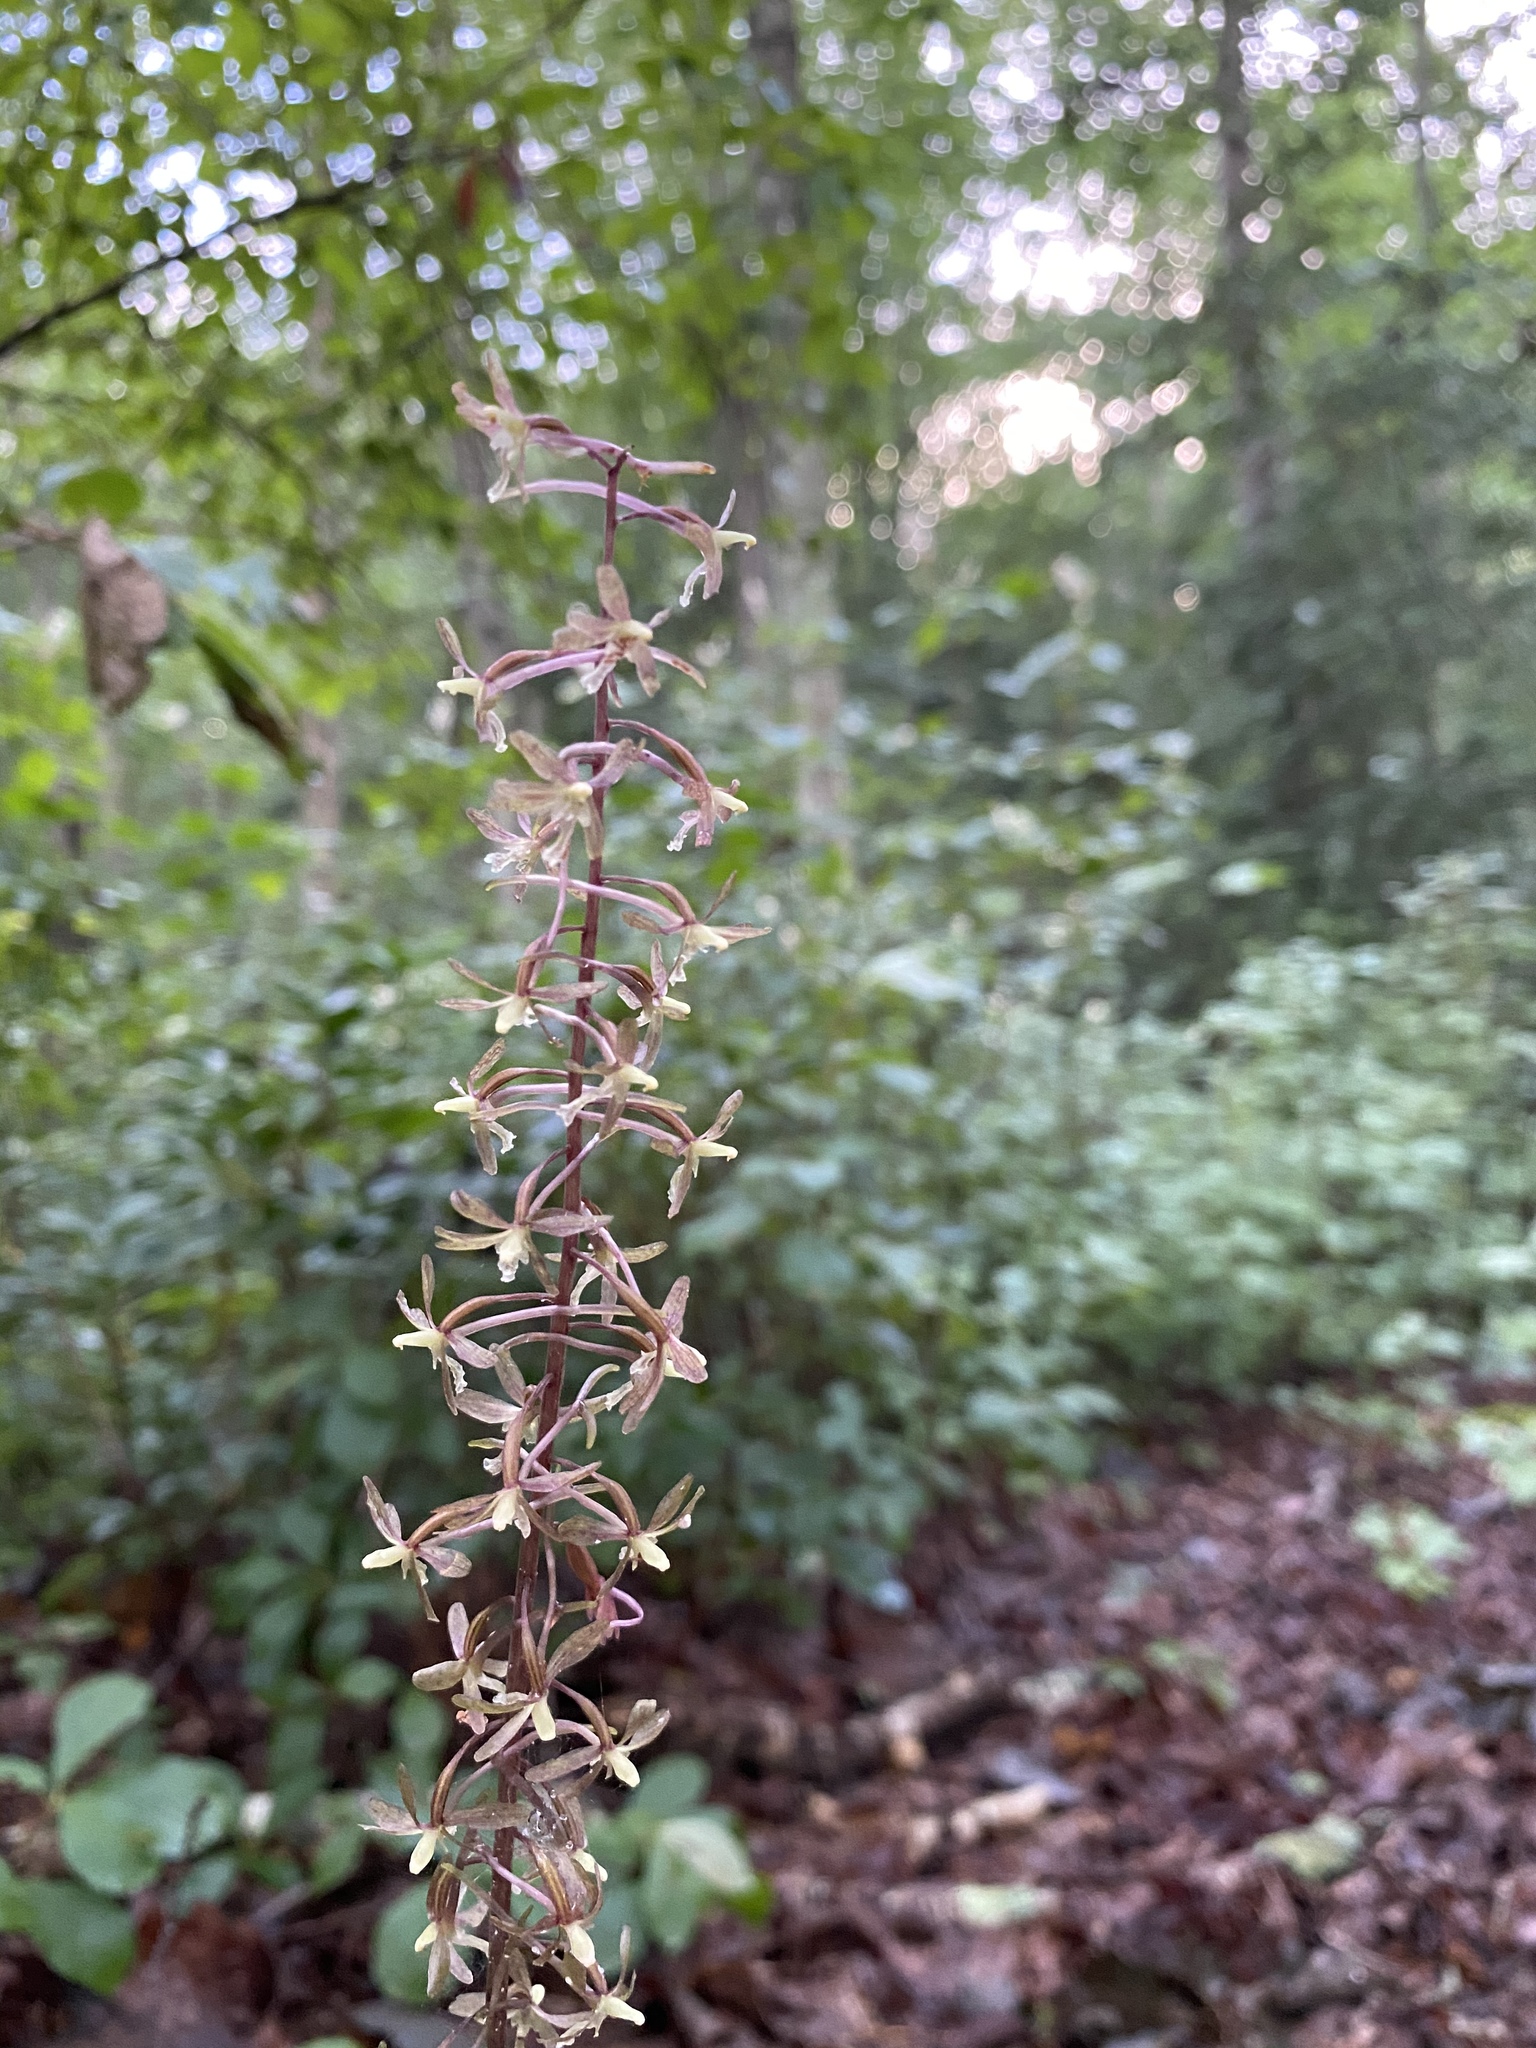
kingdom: Plantae
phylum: Tracheophyta
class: Liliopsida
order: Asparagales
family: Orchidaceae
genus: Tipularia
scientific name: Tipularia discolor
